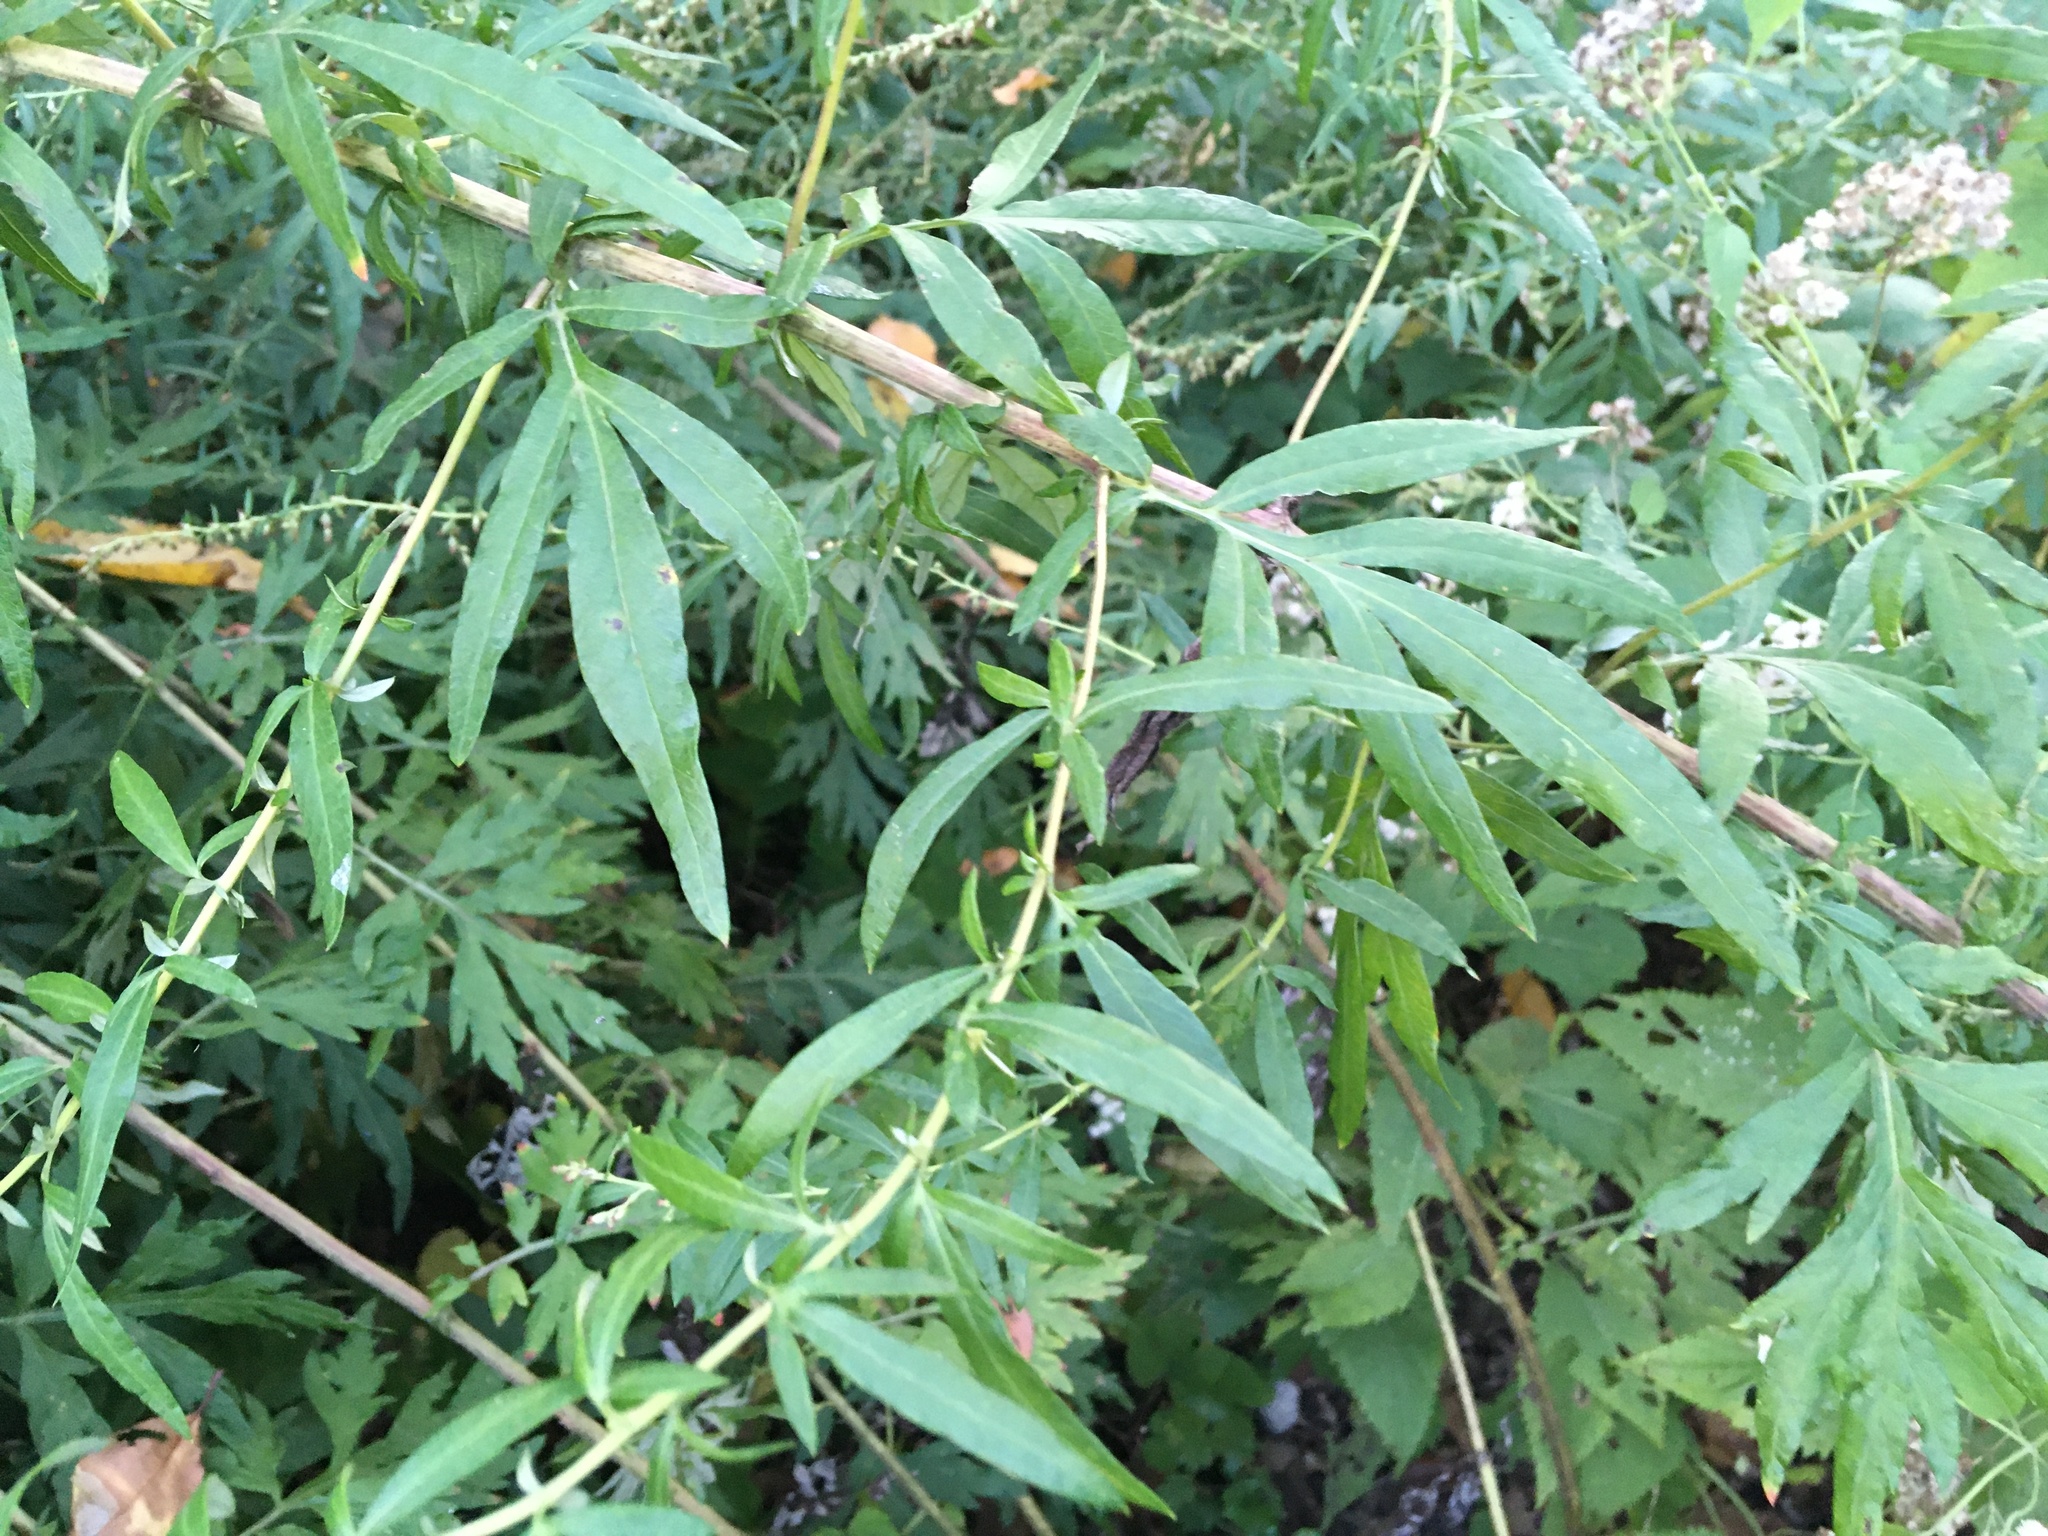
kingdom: Plantae
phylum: Tracheophyta
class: Magnoliopsida
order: Asterales
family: Asteraceae
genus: Artemisia
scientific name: Artemisia vulgaris
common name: Mugwort
